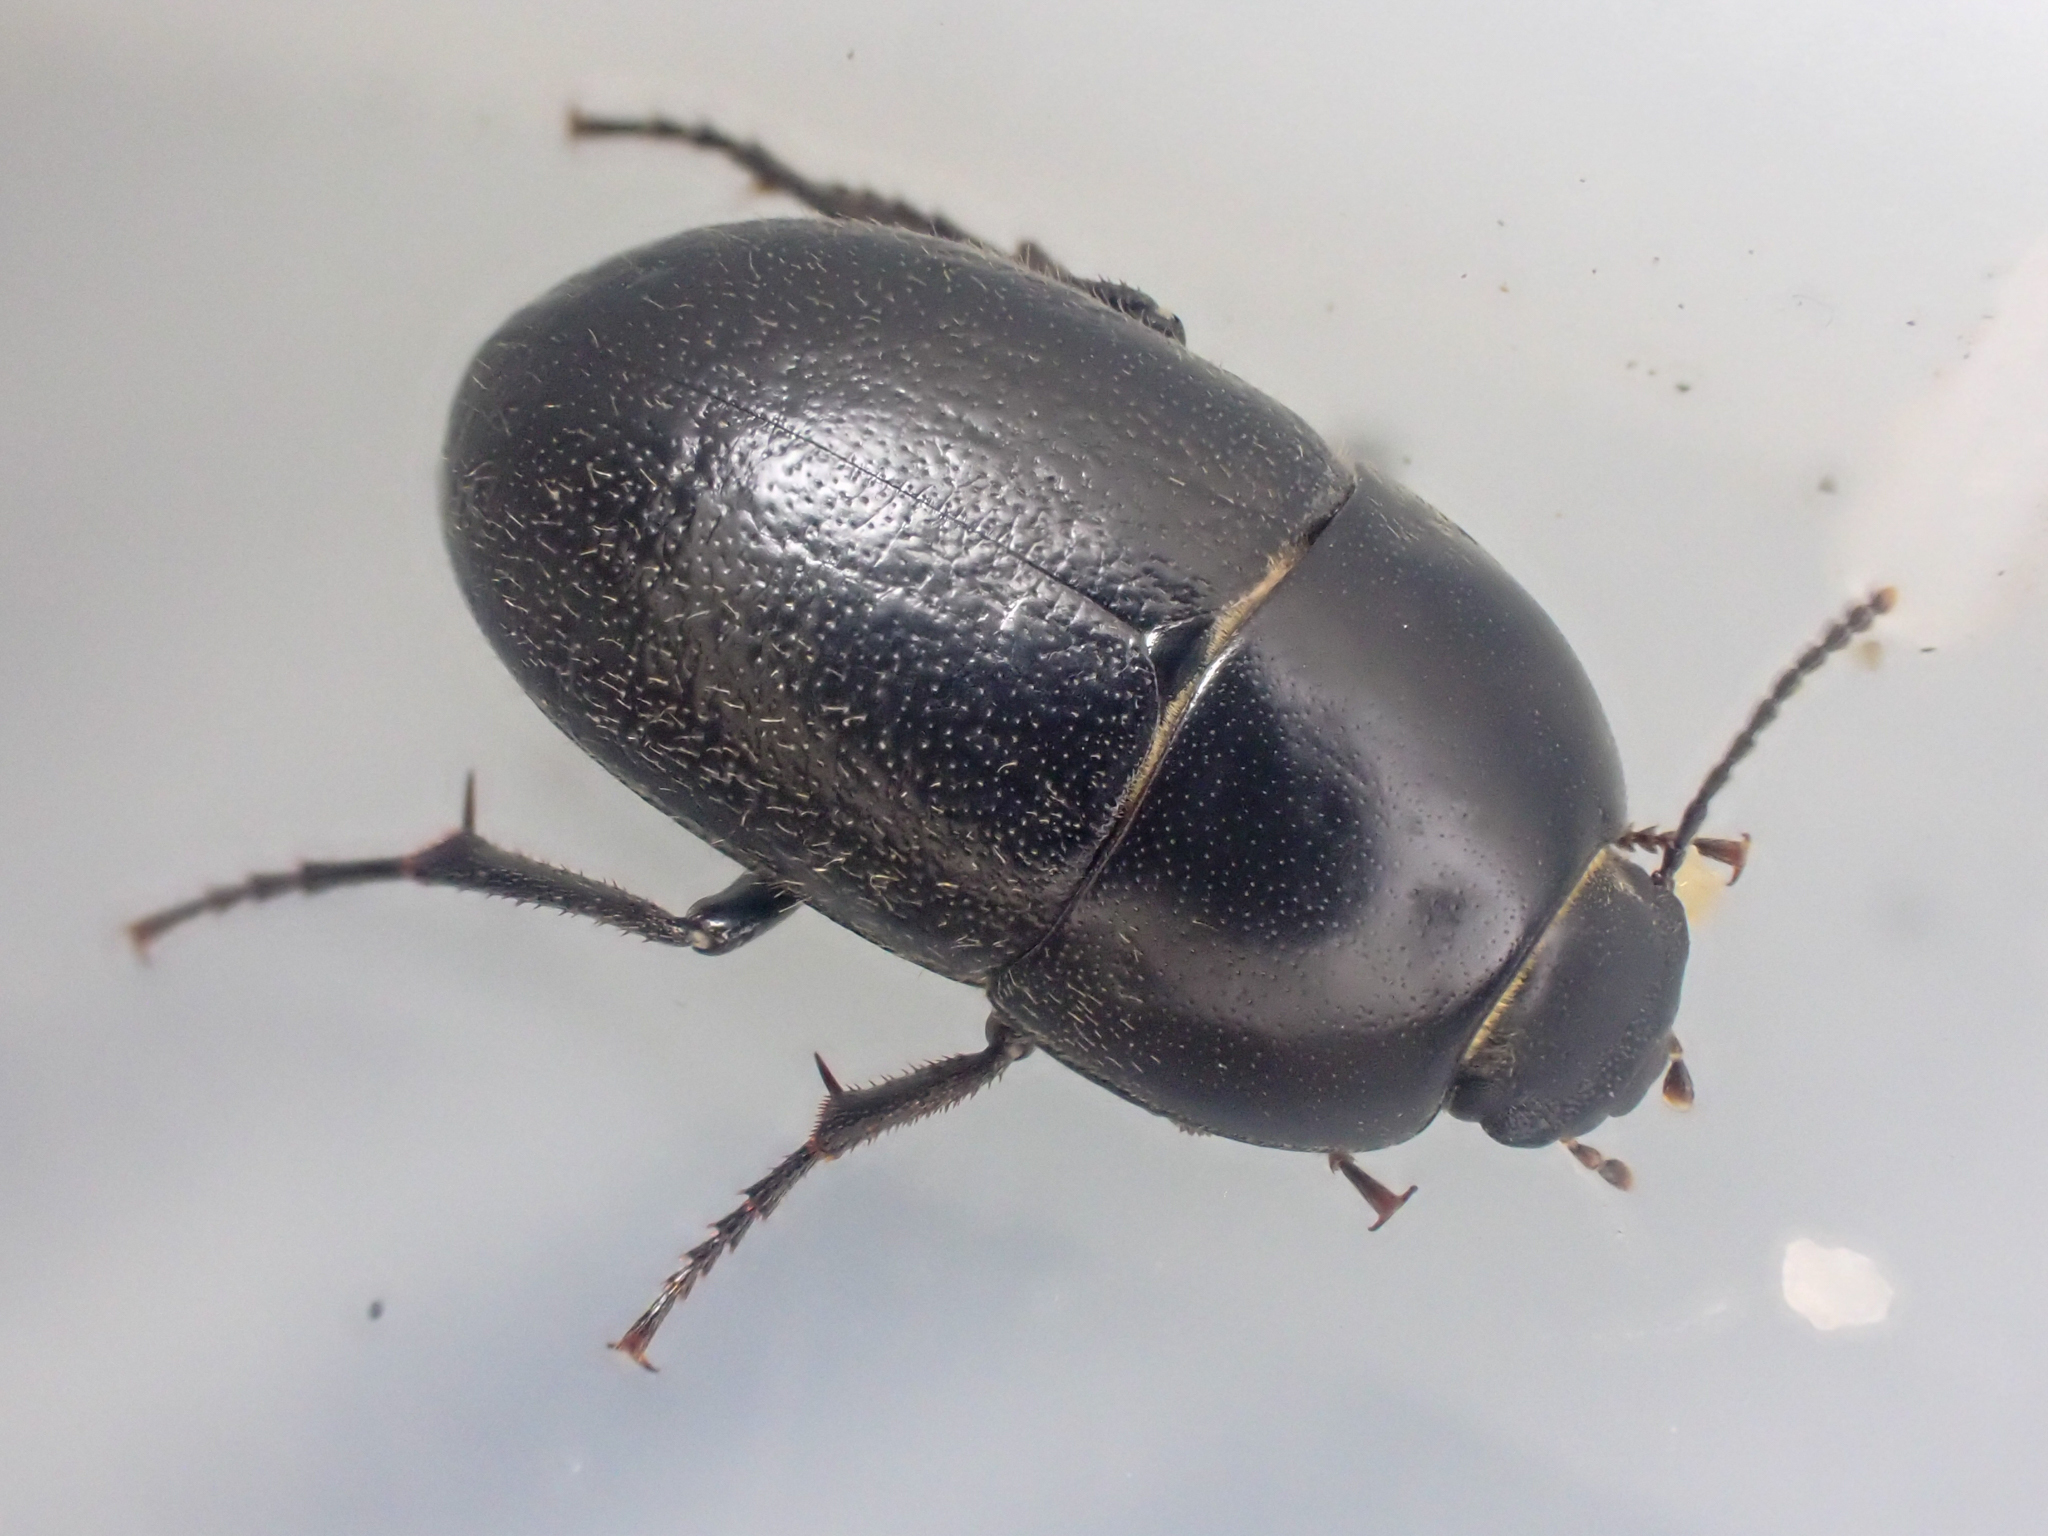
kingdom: Animalia
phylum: Arthropoda
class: Insecta
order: Coleoptera
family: Tenebrionidae
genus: Coniontis
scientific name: Coniontis
